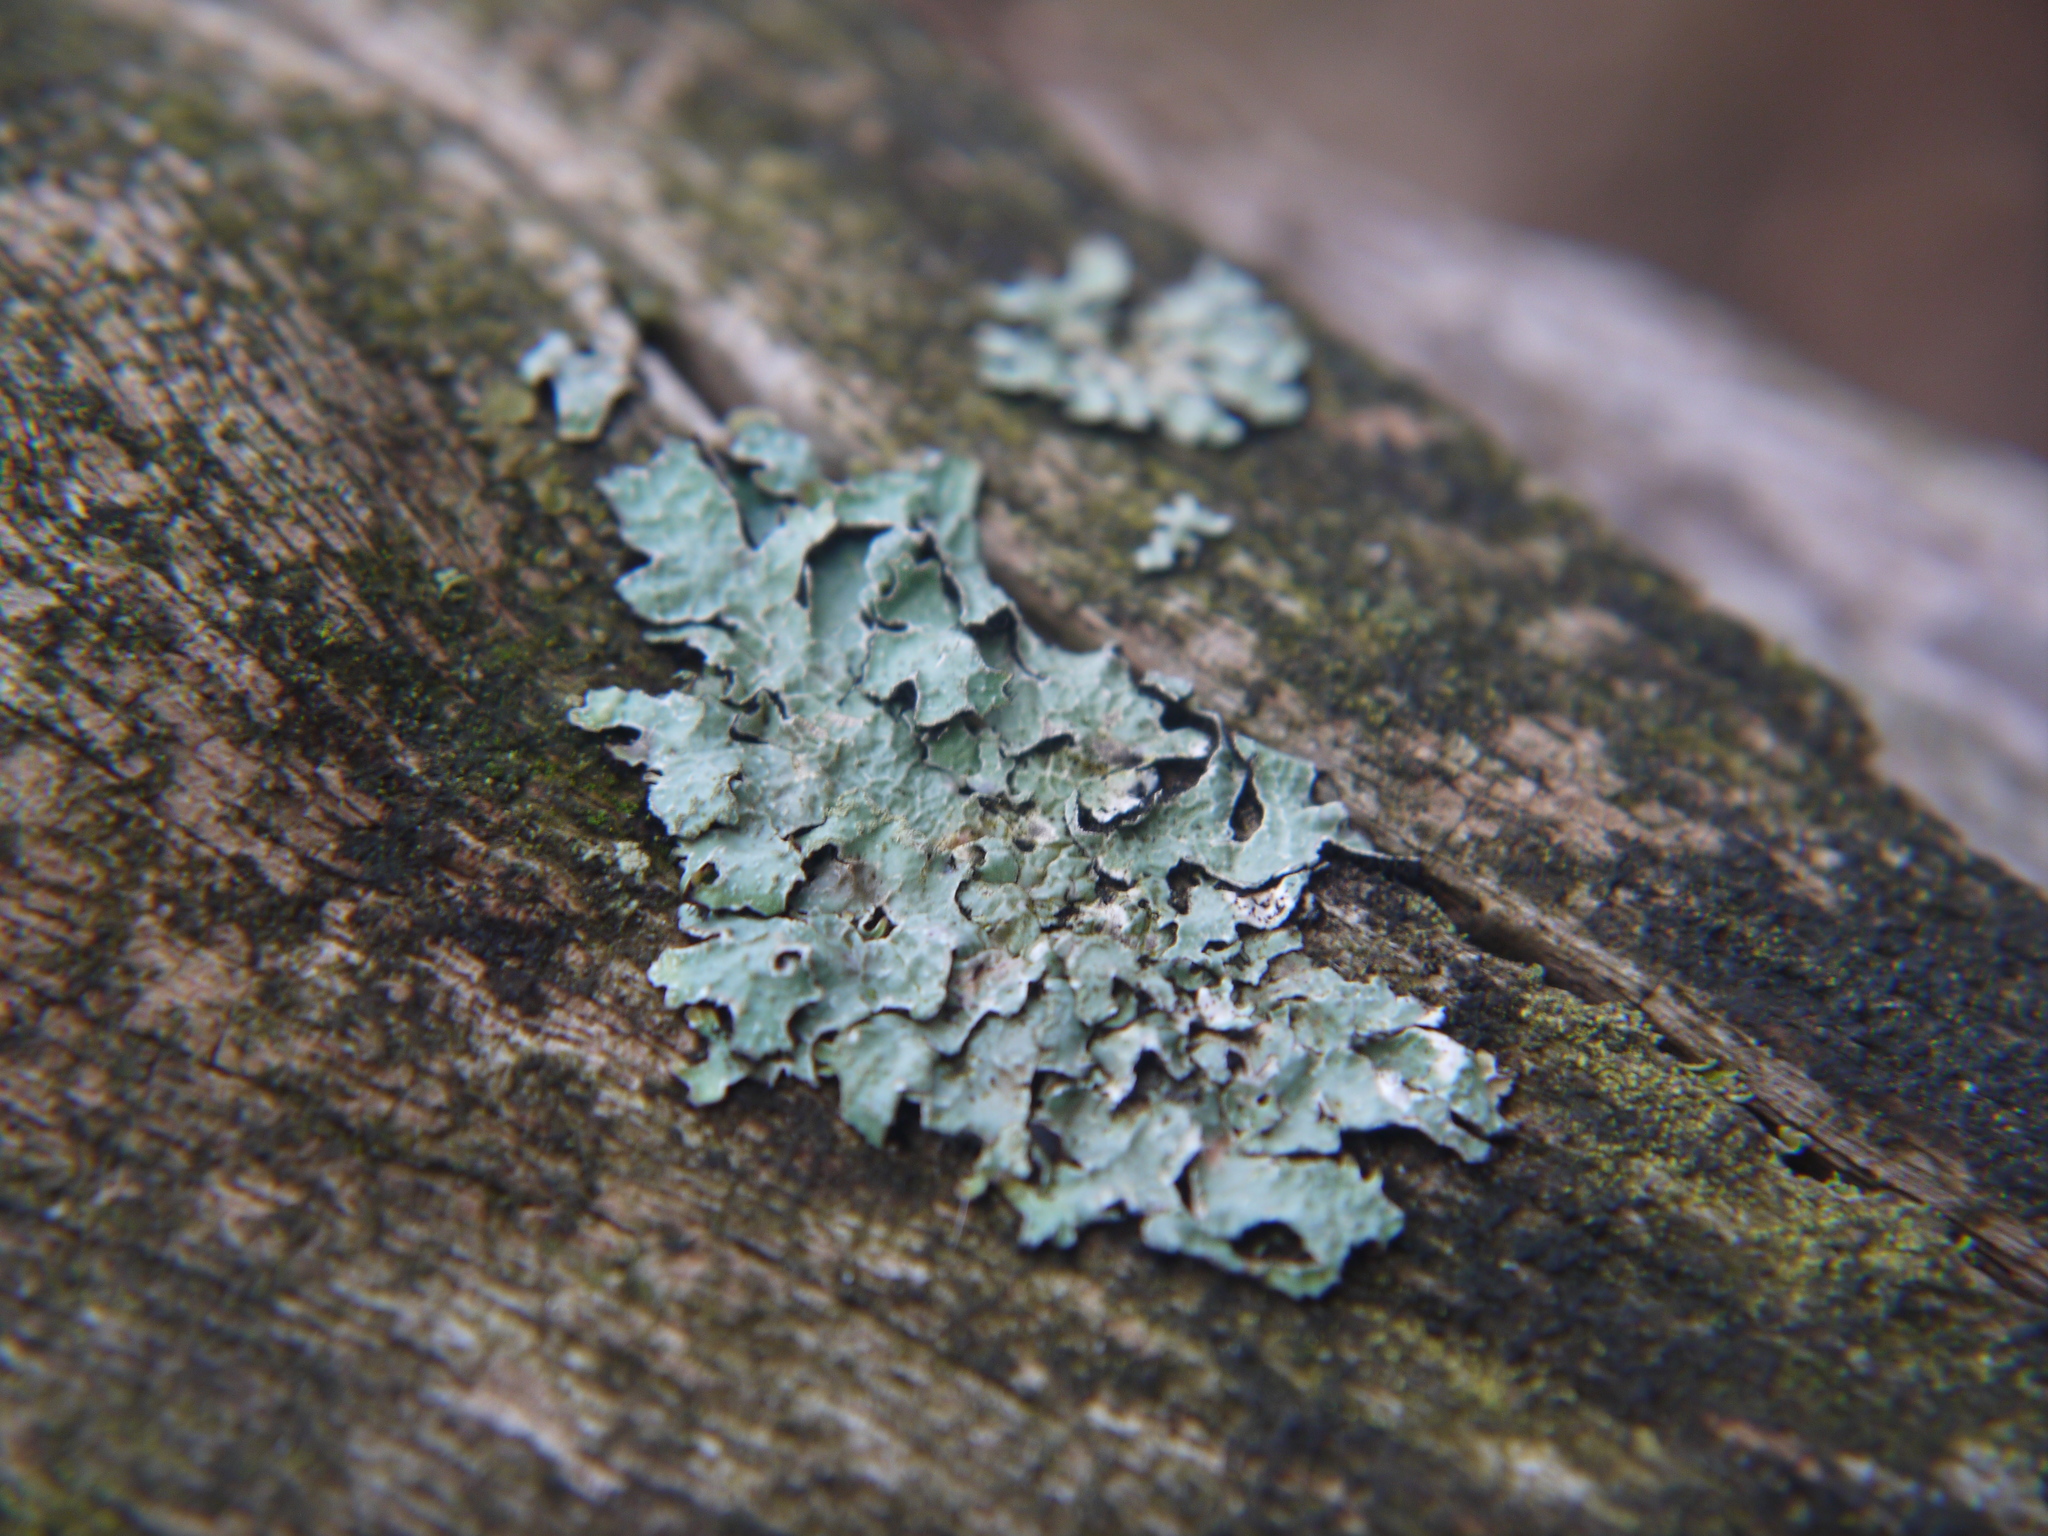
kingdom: Fungi
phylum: Ascomycota
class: Lecanoromycetes
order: Lecanorales
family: Parmeliaceae
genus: Parmelia
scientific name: Parmelia sulcata
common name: Netted shield lichen
